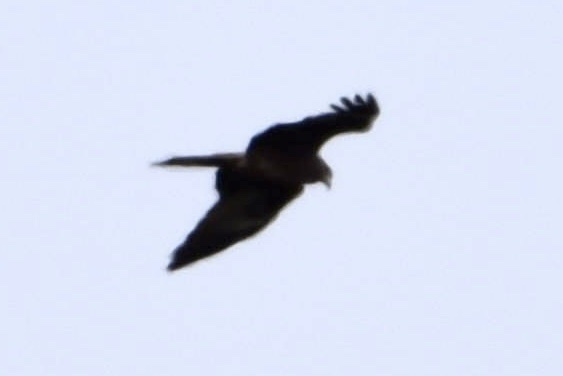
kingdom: Animalia
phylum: Chordata
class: Aves
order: Accipitriformes
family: Accipitridae
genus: Milvus
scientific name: Milvus migrans
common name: Black kite
